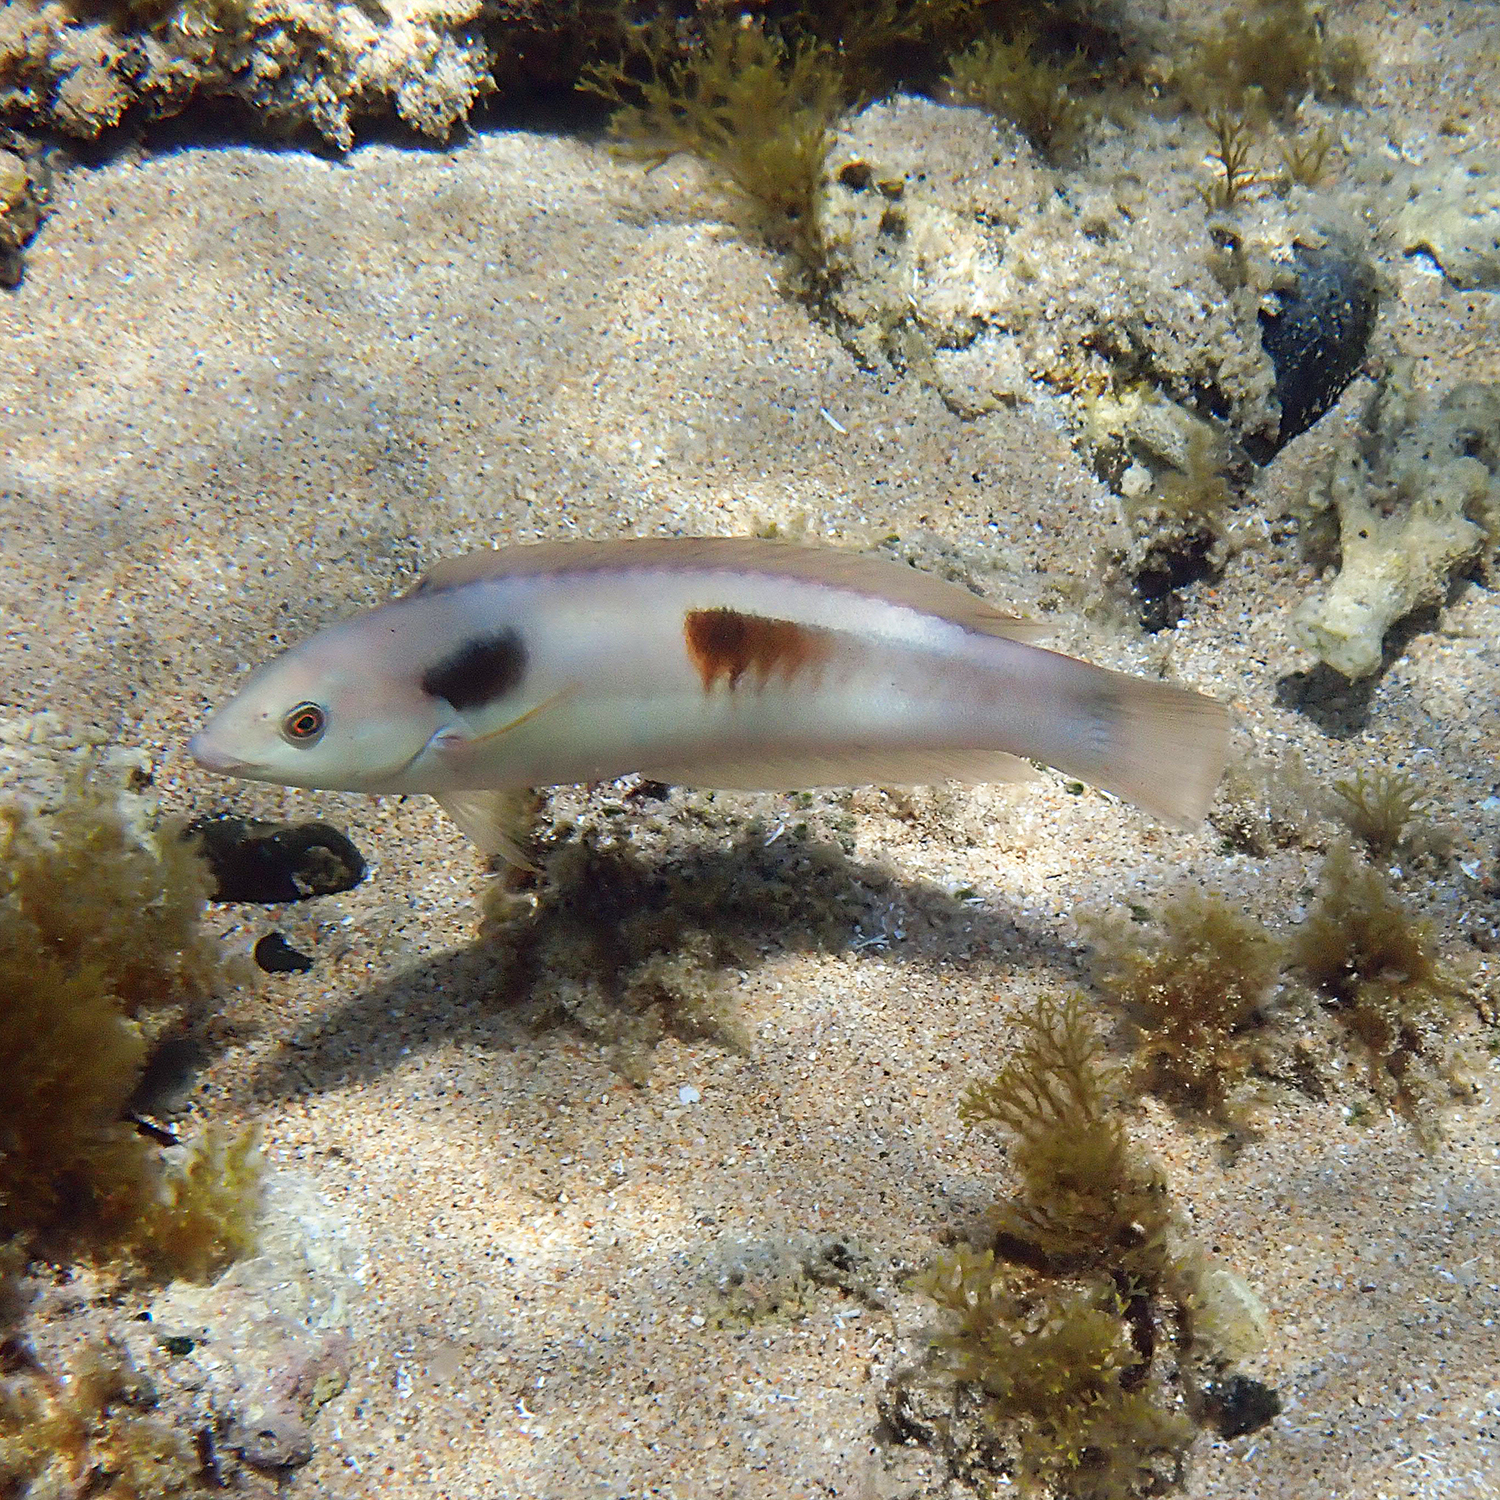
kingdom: Animalia
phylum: Chordata
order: Perciformes
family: Labridae
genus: Coris
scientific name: Coris sandeyeri
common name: Sandager's wrasse
